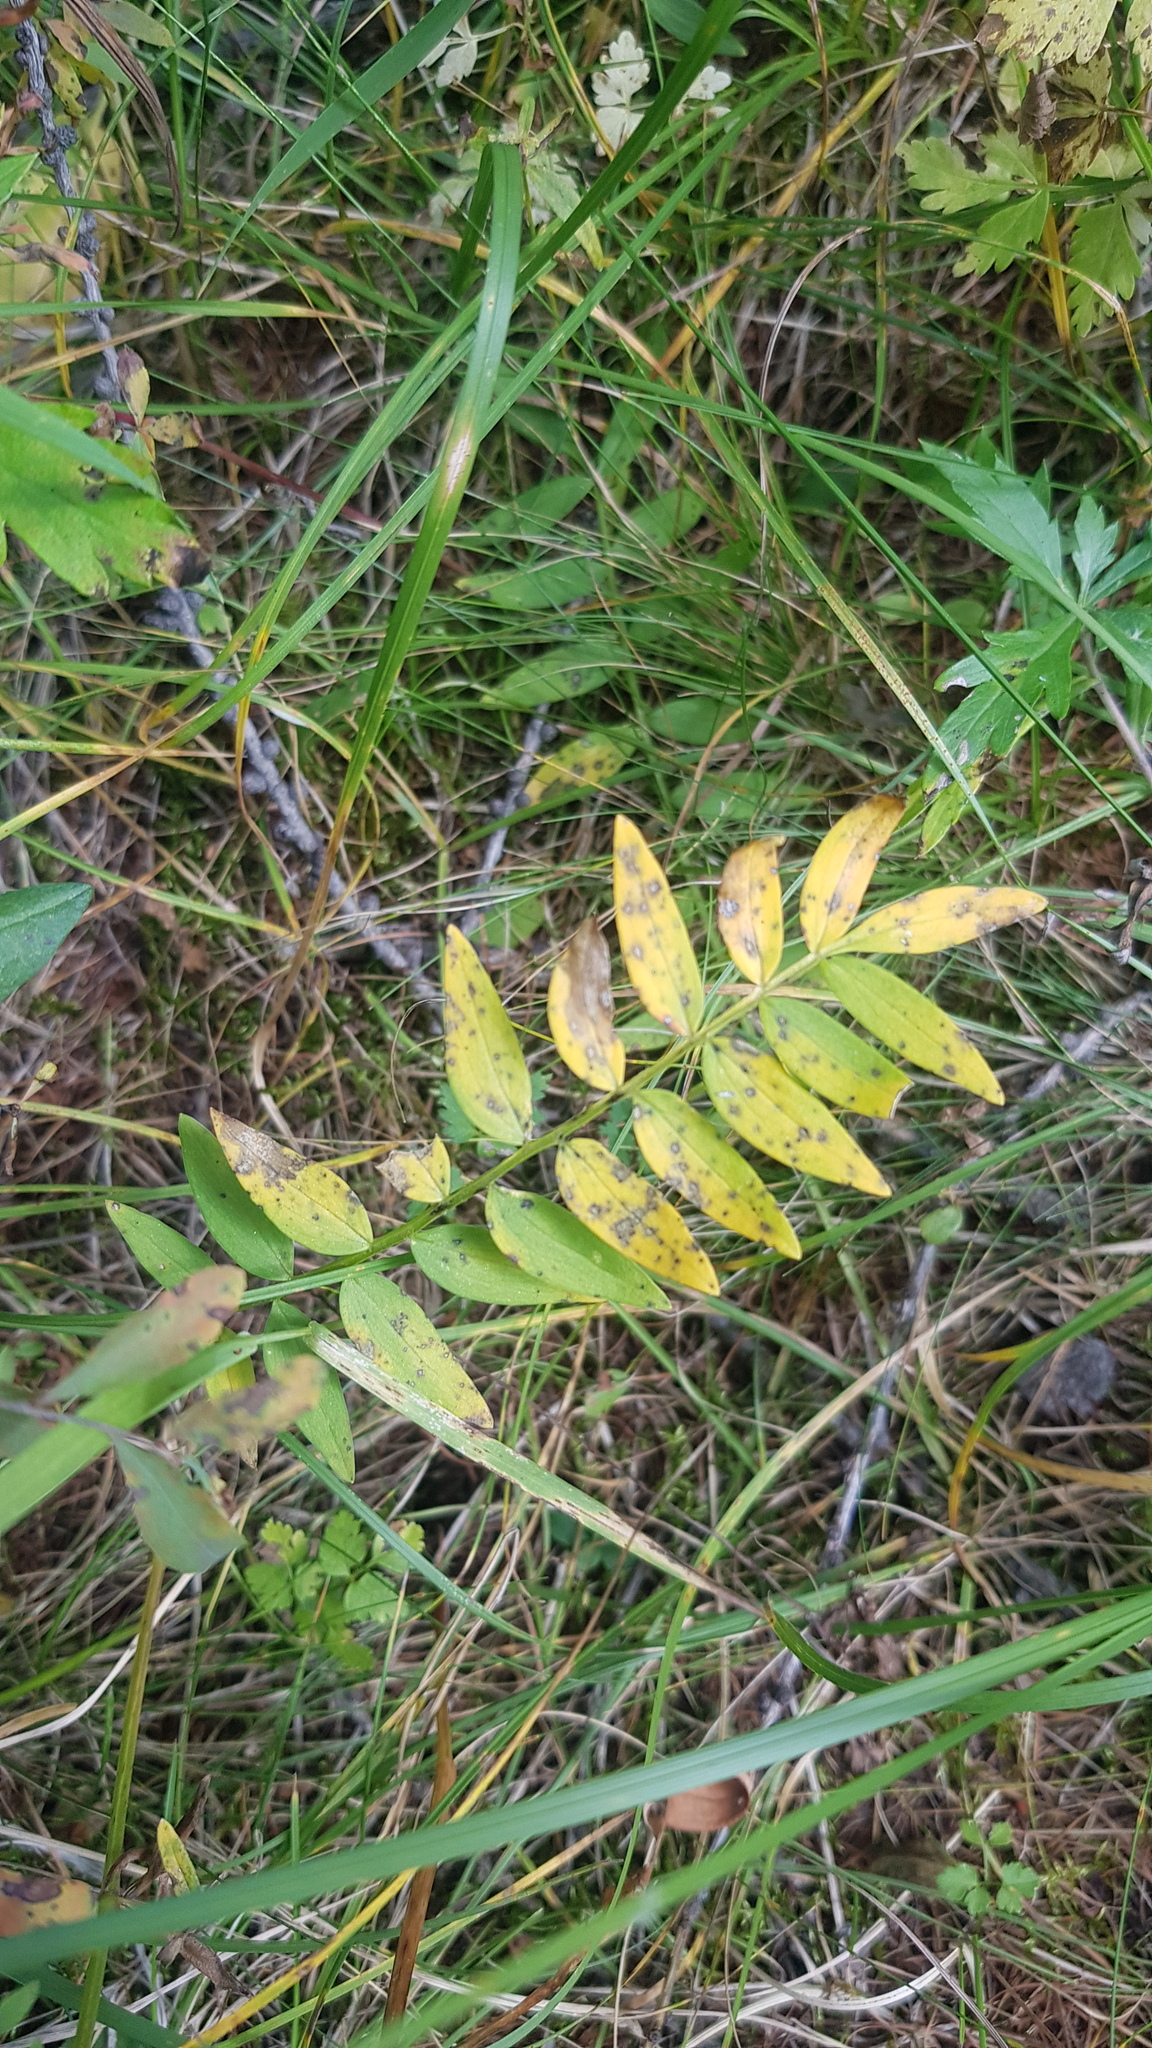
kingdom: Plantae
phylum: Tracheophyta
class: Magnoliopsida
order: Dipsacales
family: Caprifoliaceae
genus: Valeriana
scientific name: Valeriana officinalis
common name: Common valerian
